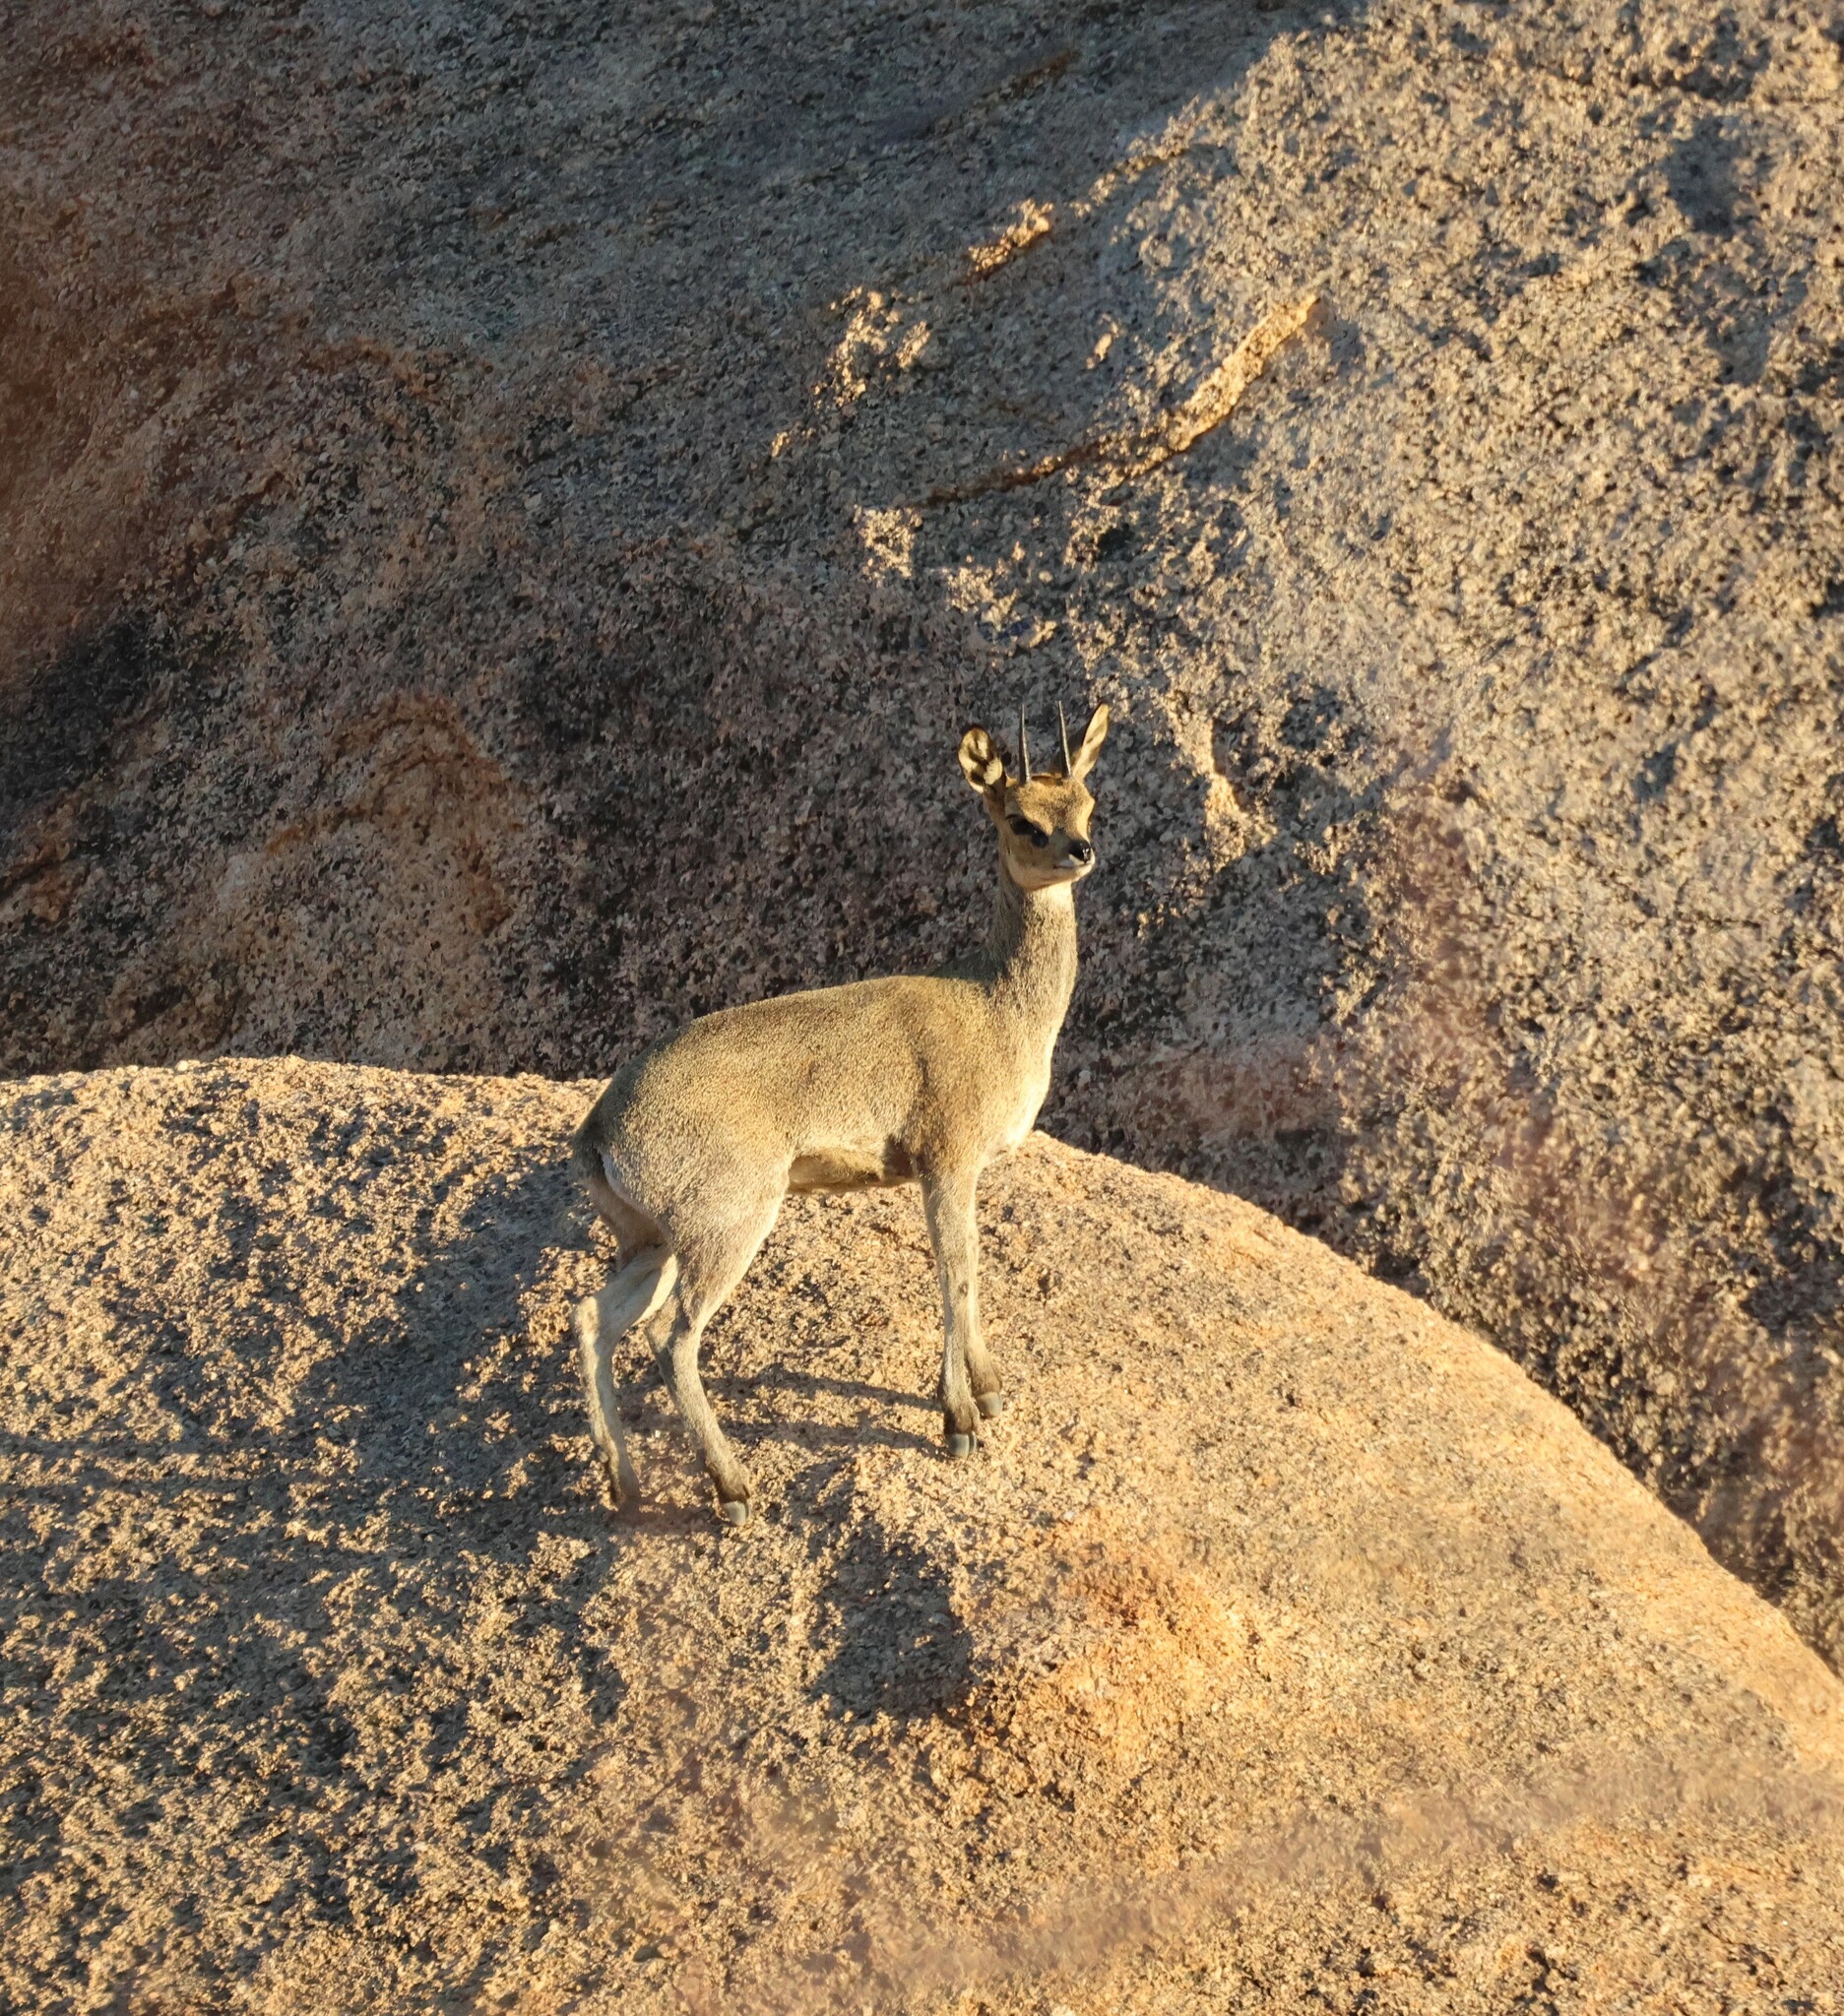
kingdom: Animalia
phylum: Chordata
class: Mammalia
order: Artiodactyla
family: Bovidae
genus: Oreotragus
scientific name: Oreotragus oreotragus
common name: Klipspringer
